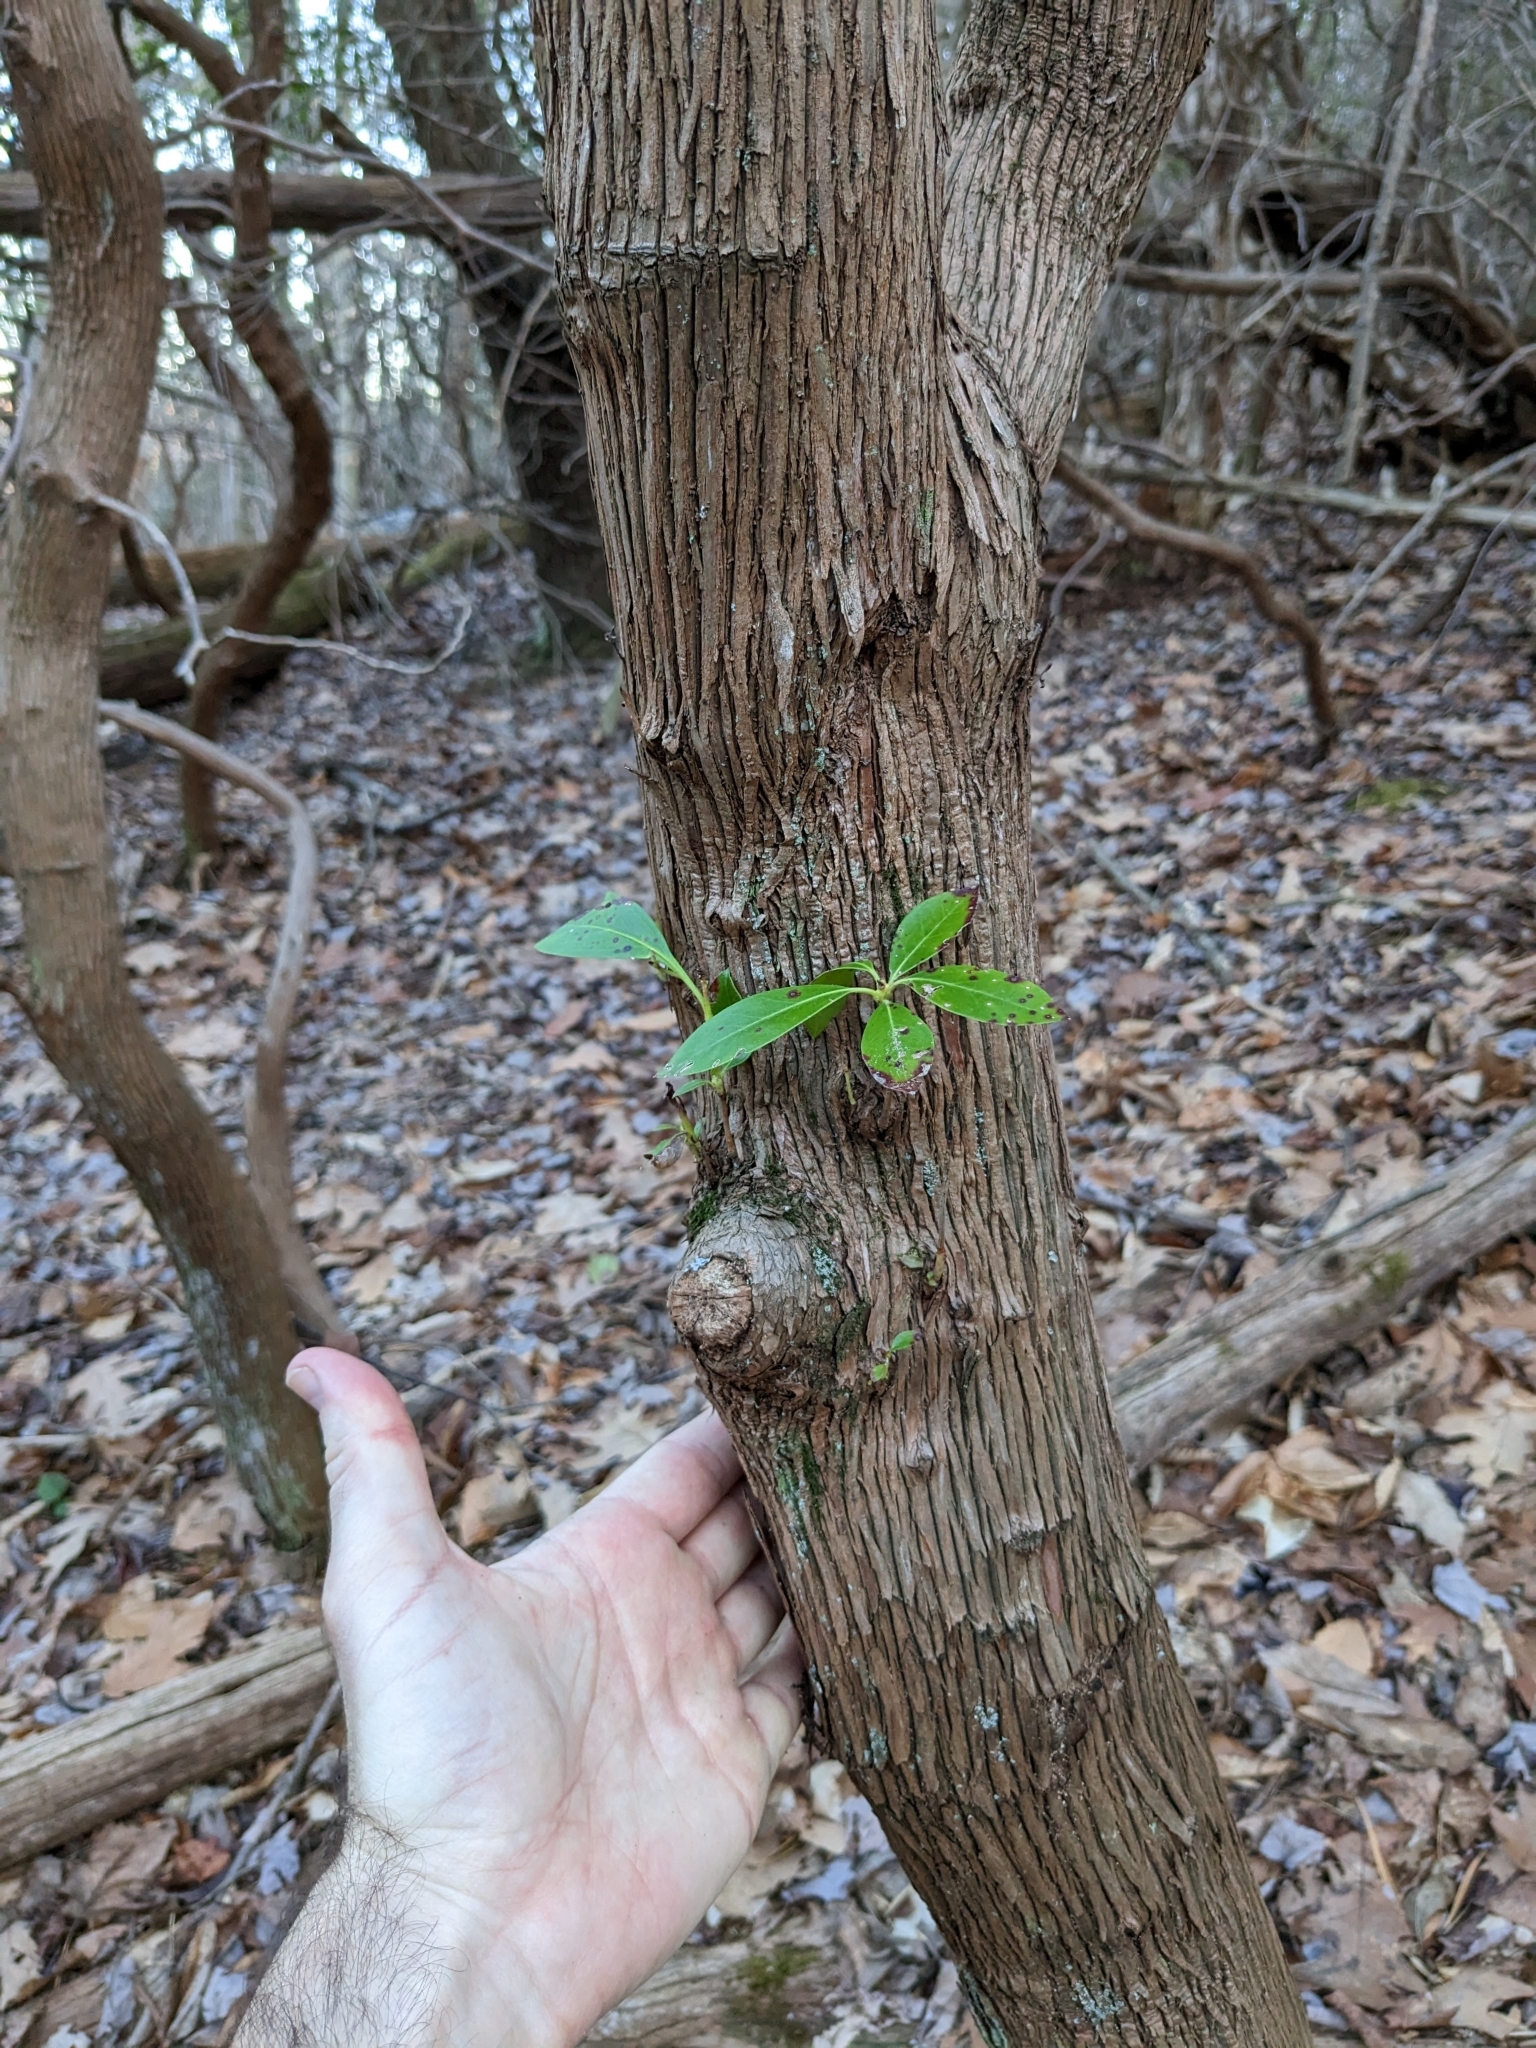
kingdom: Plantae
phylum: Tracheophyta
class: Magnoliopsida
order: Ericales
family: Ericaceae
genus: Kalmia
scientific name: Kalmia latifolia
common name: Mountain-laurel
